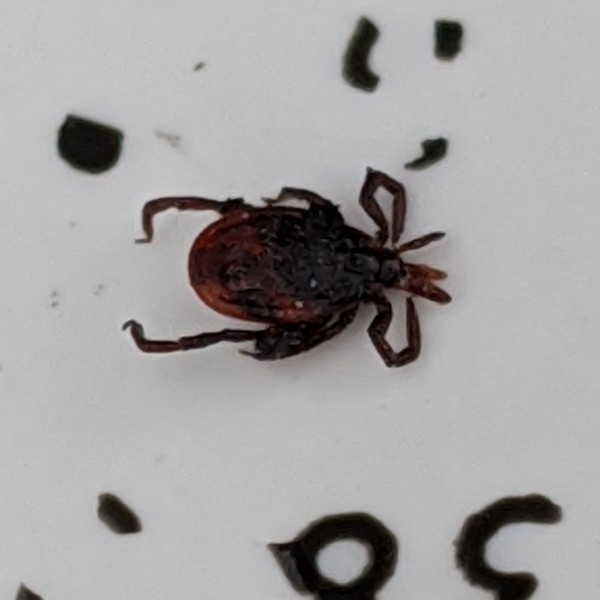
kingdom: Animalia
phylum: Arthropoda
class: Arachnida
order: Ixodida
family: Ixodidae
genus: Ixodes
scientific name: Ixodes scapularis
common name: Black legged tick
